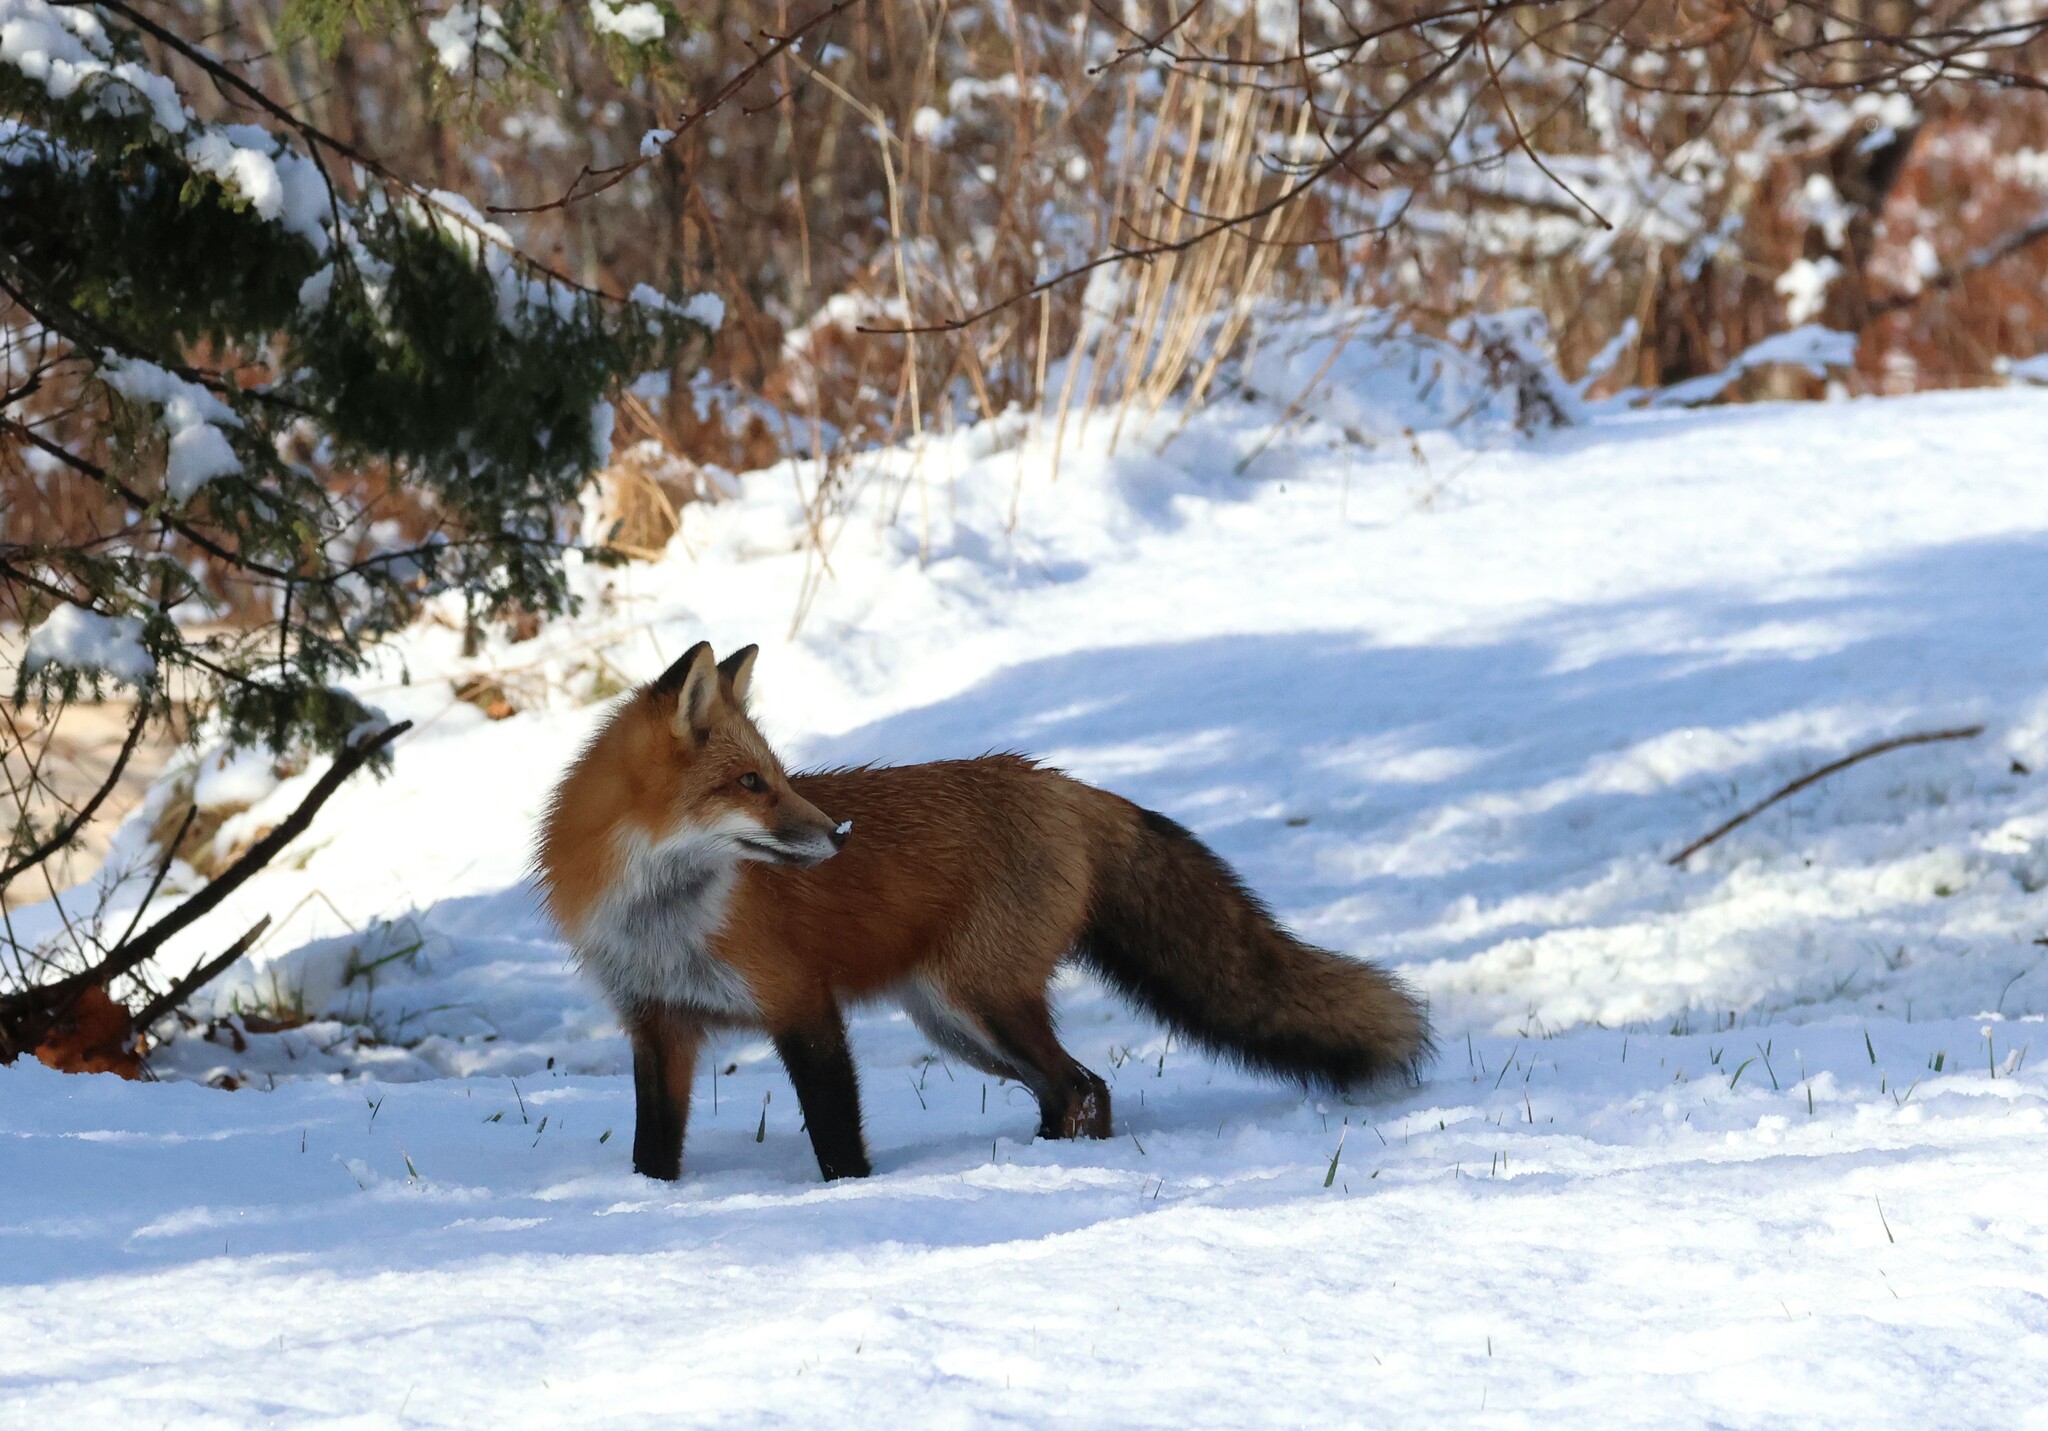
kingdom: Animalia
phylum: Chordata
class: Mammalia
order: Carnivora
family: Canidae
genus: Vulpes
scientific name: Vulpes vulpes
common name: Red fox
